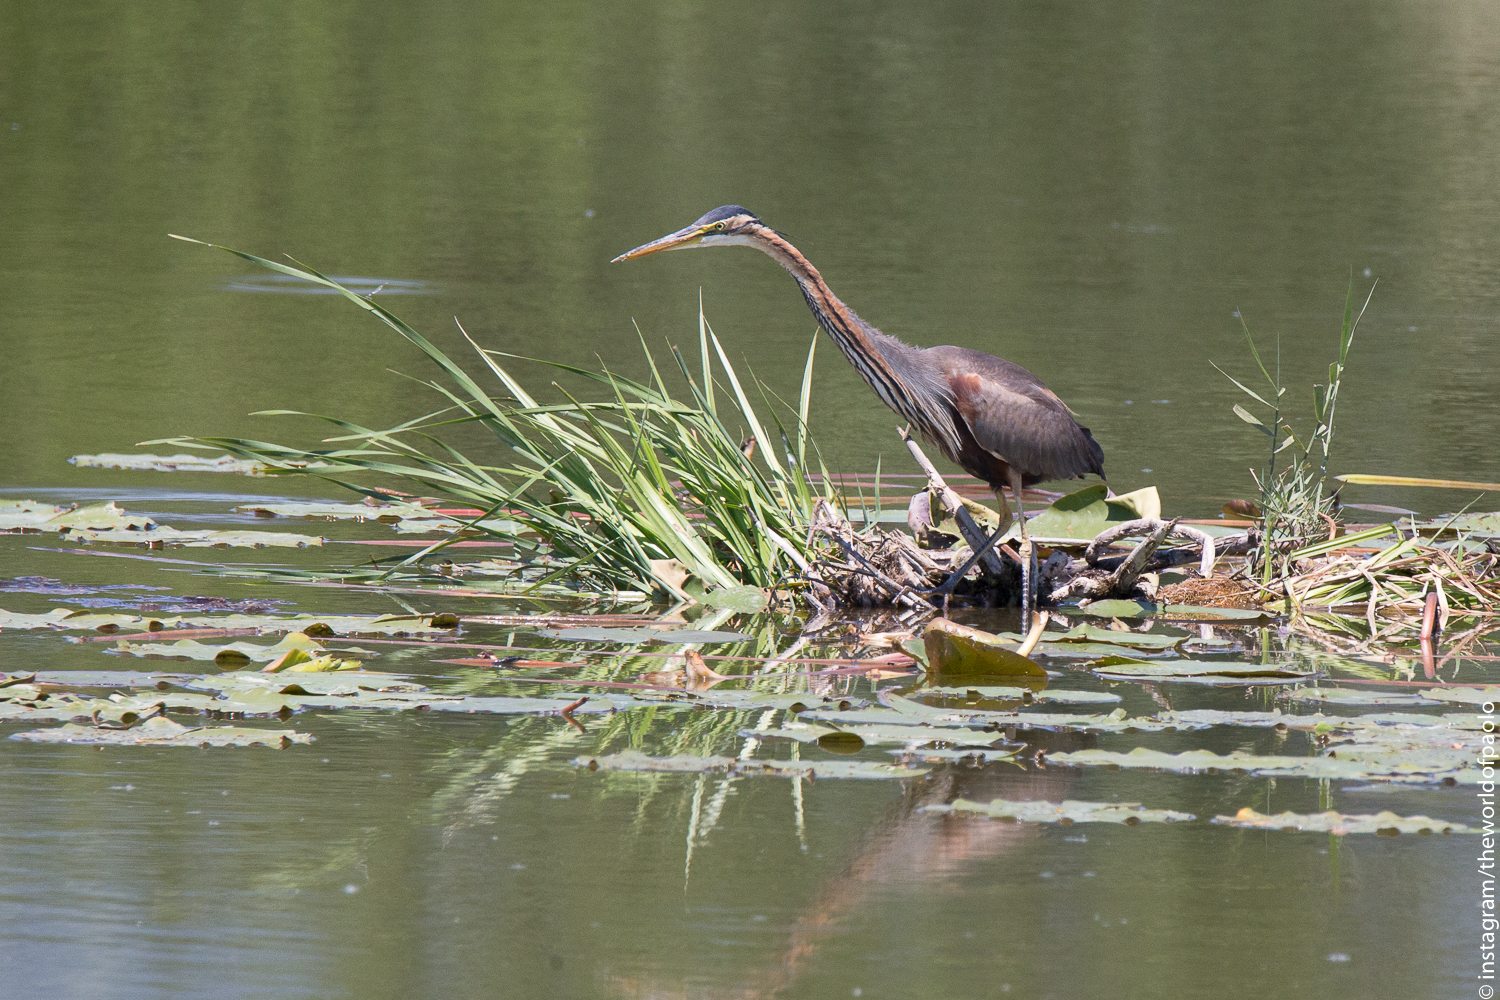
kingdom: Animalia
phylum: Chordata
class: Aves
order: Pelecaniformes
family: Ardeidae
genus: Ardea
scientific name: Ardea purpurea
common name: Purple heron
